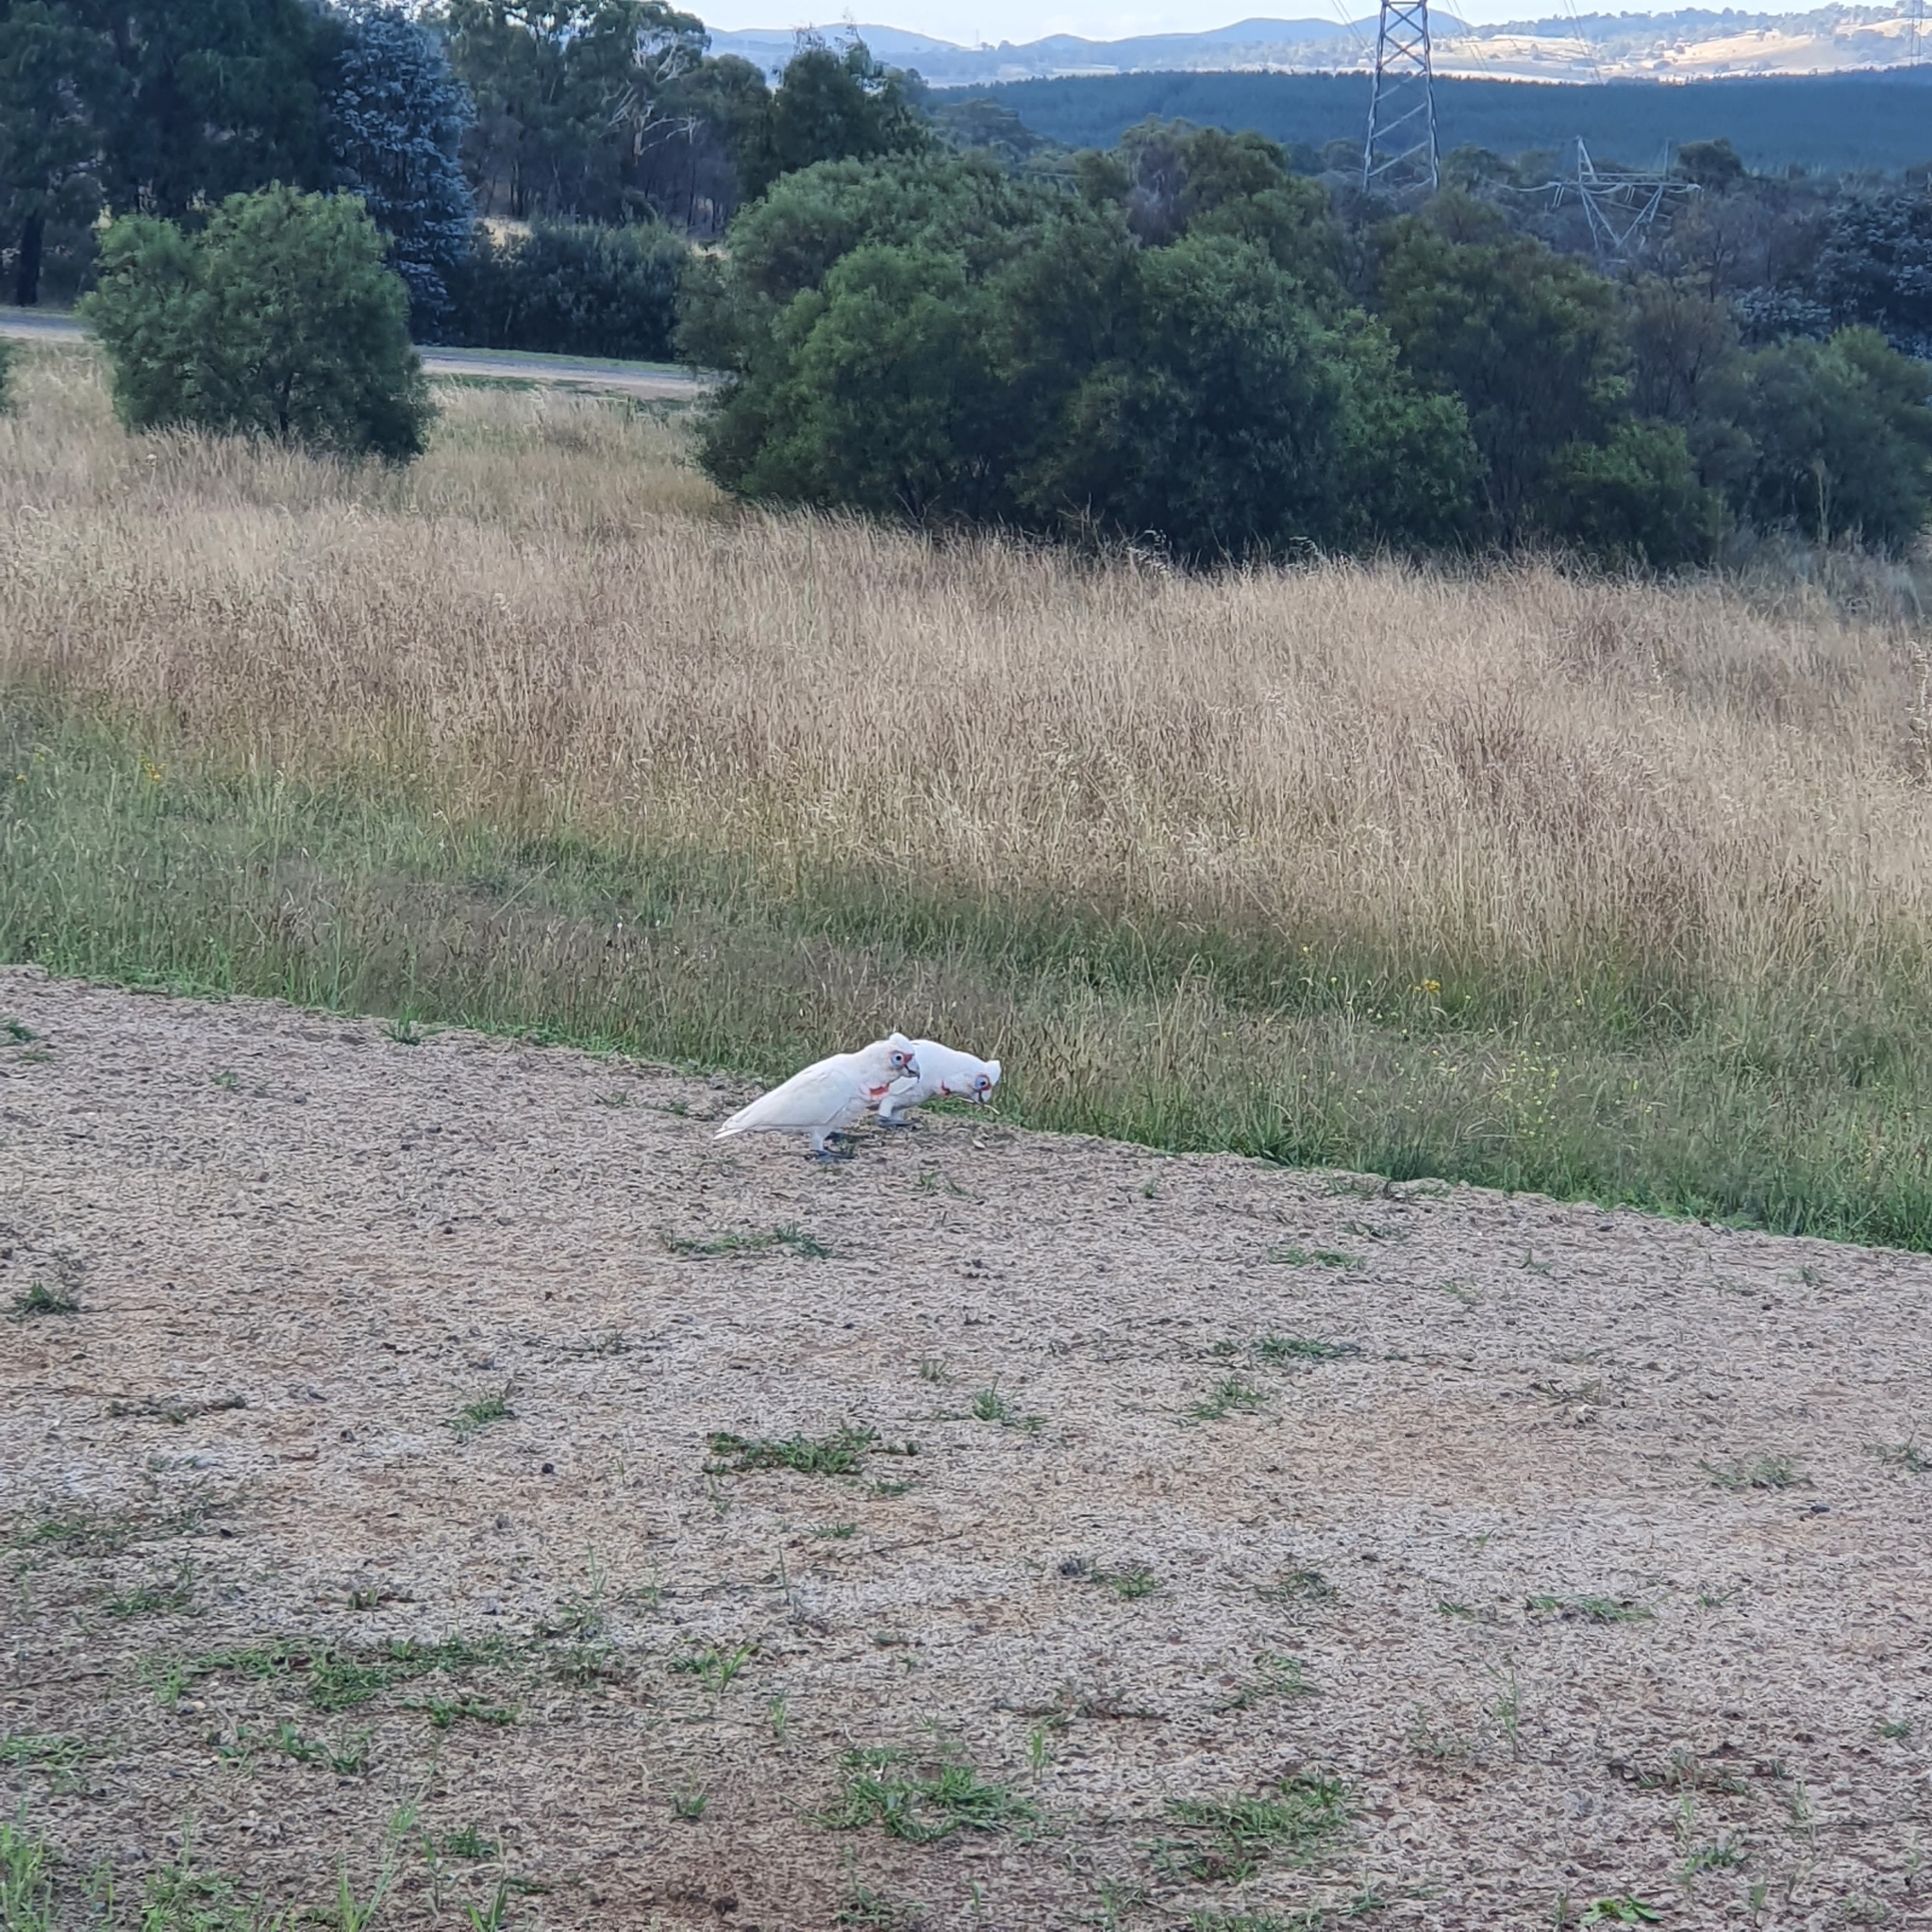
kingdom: Animalia
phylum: Chordata
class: Aves
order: Psittaciformes
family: Psittacidae
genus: Cacatua
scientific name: Cacatua tenuirostris
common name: Long-billed corella
